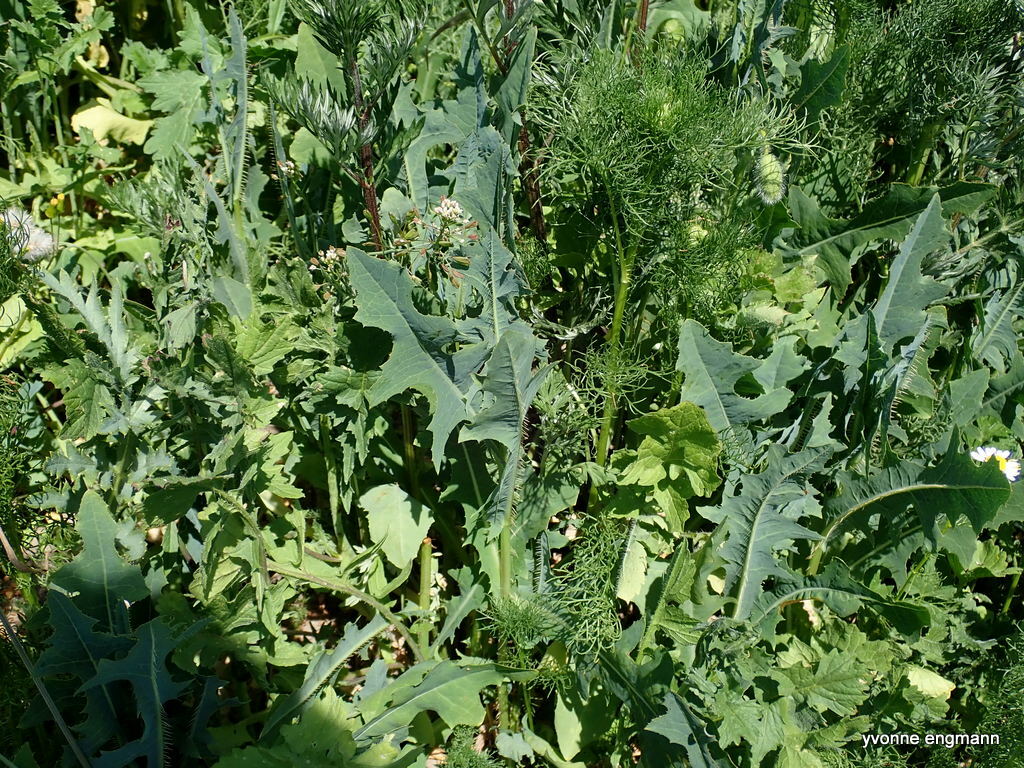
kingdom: Plantae
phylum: Tracheophyta
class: Magnoliopsida
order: Asterales
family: Asteraceae
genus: Lactuca
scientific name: Lactuca serriola
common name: Prickly lettuce
